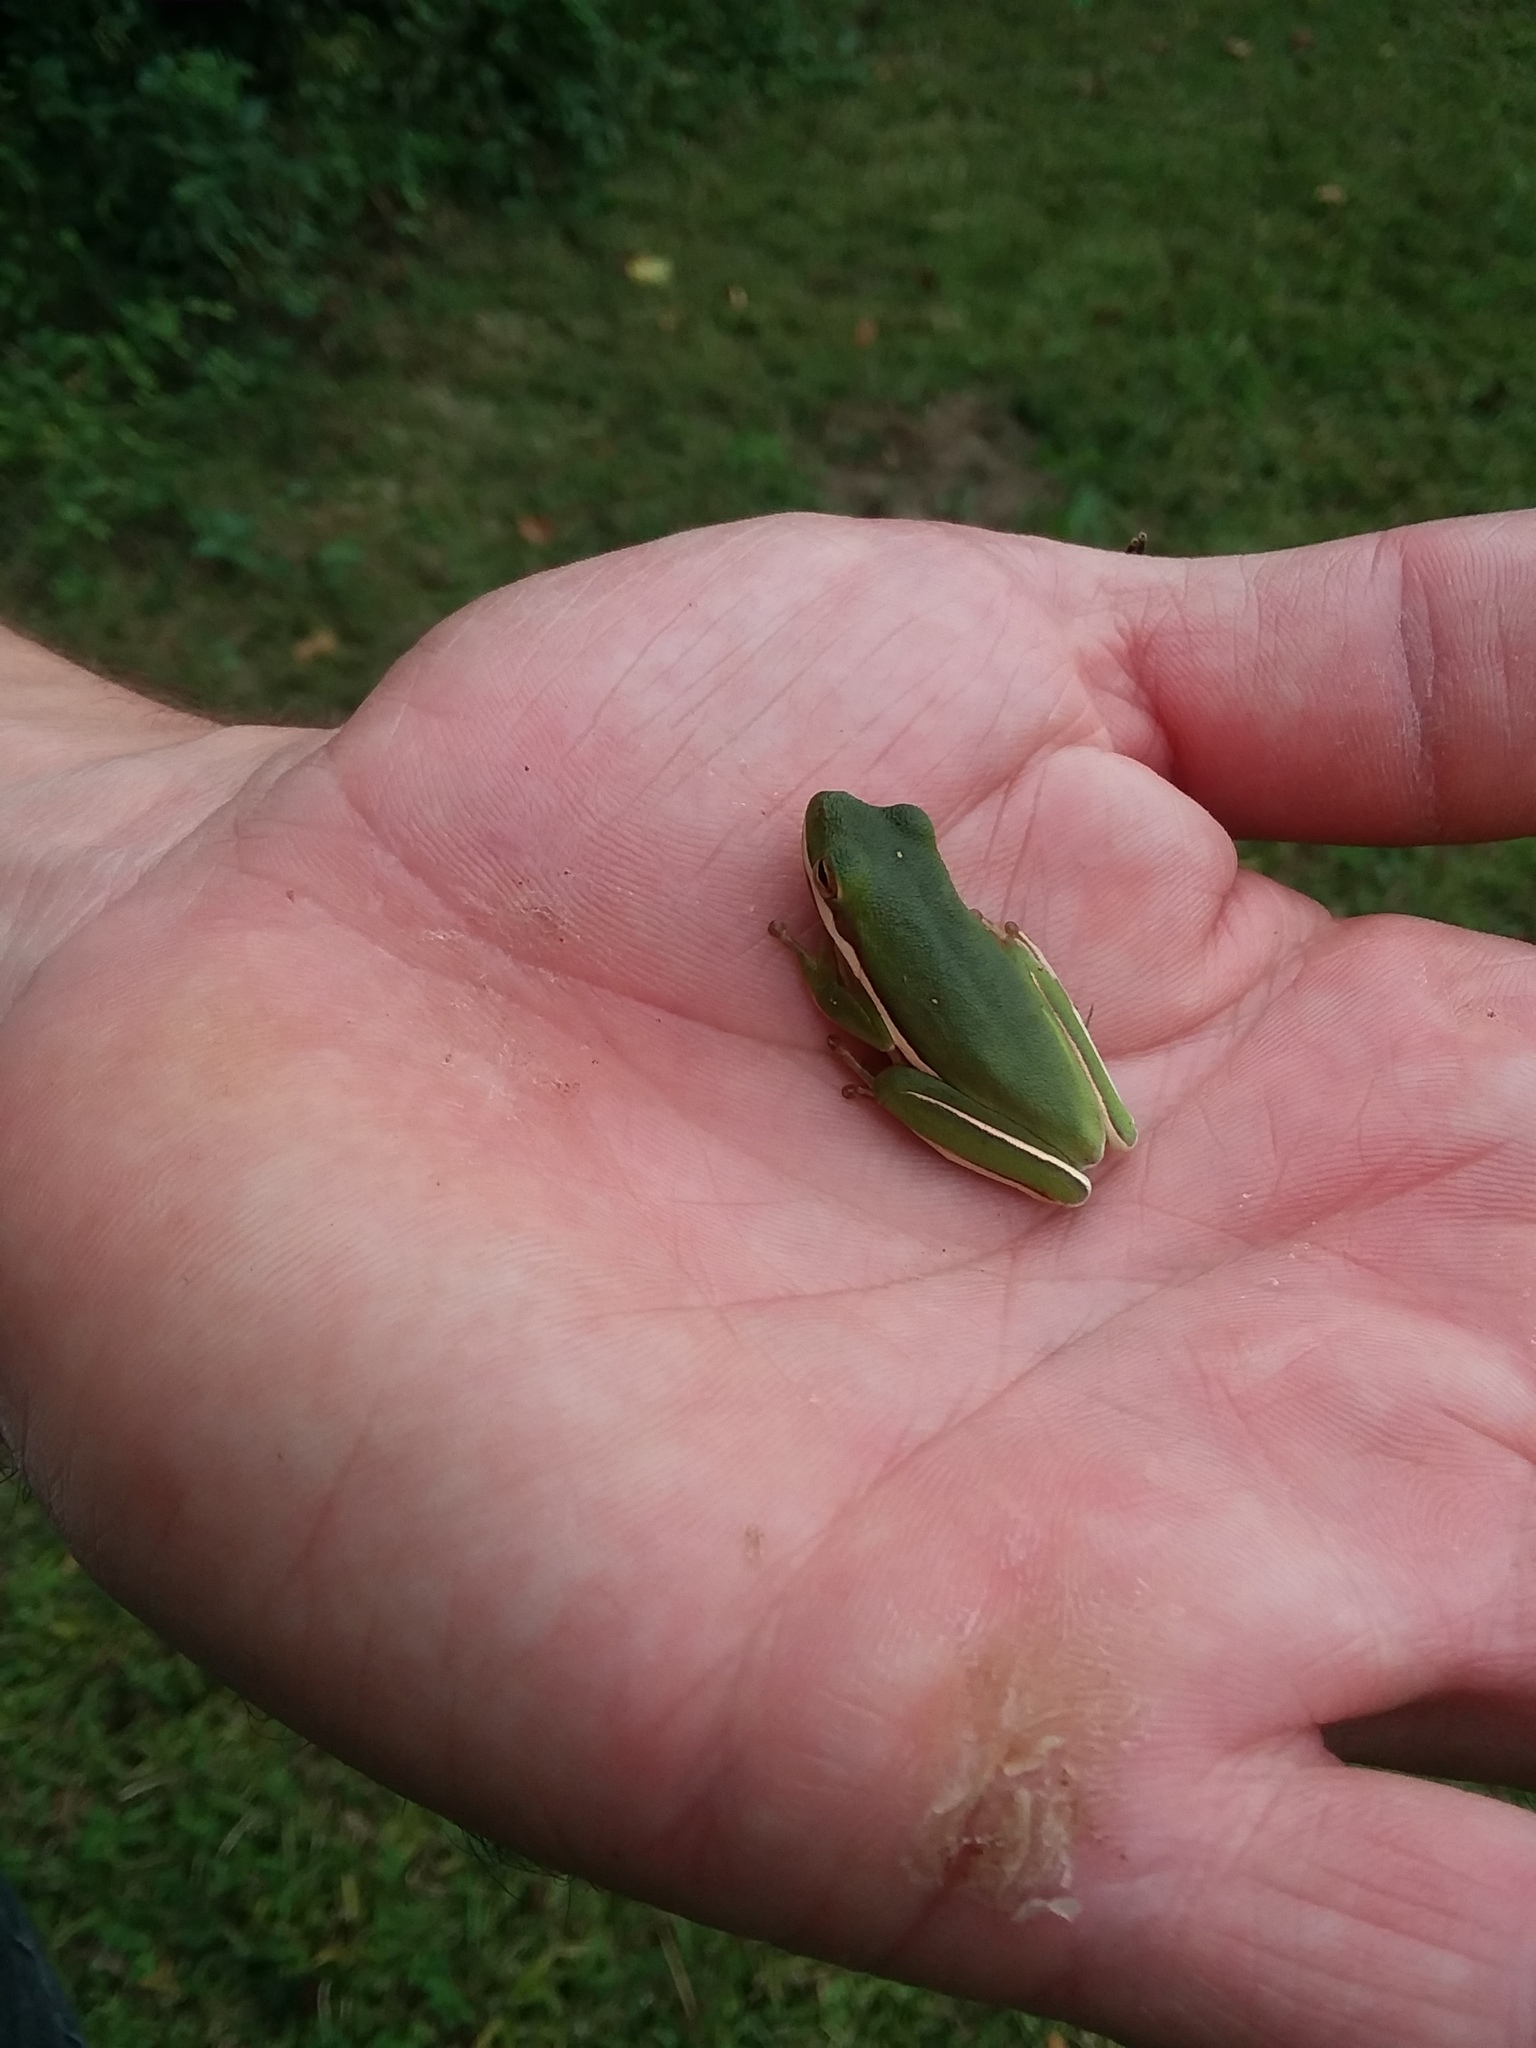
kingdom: Animalia
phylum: Chordata
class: Amphibia
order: Anura
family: Hylidae
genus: Dryophytes
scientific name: Dryophytes cinereus
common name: Green treefrog
